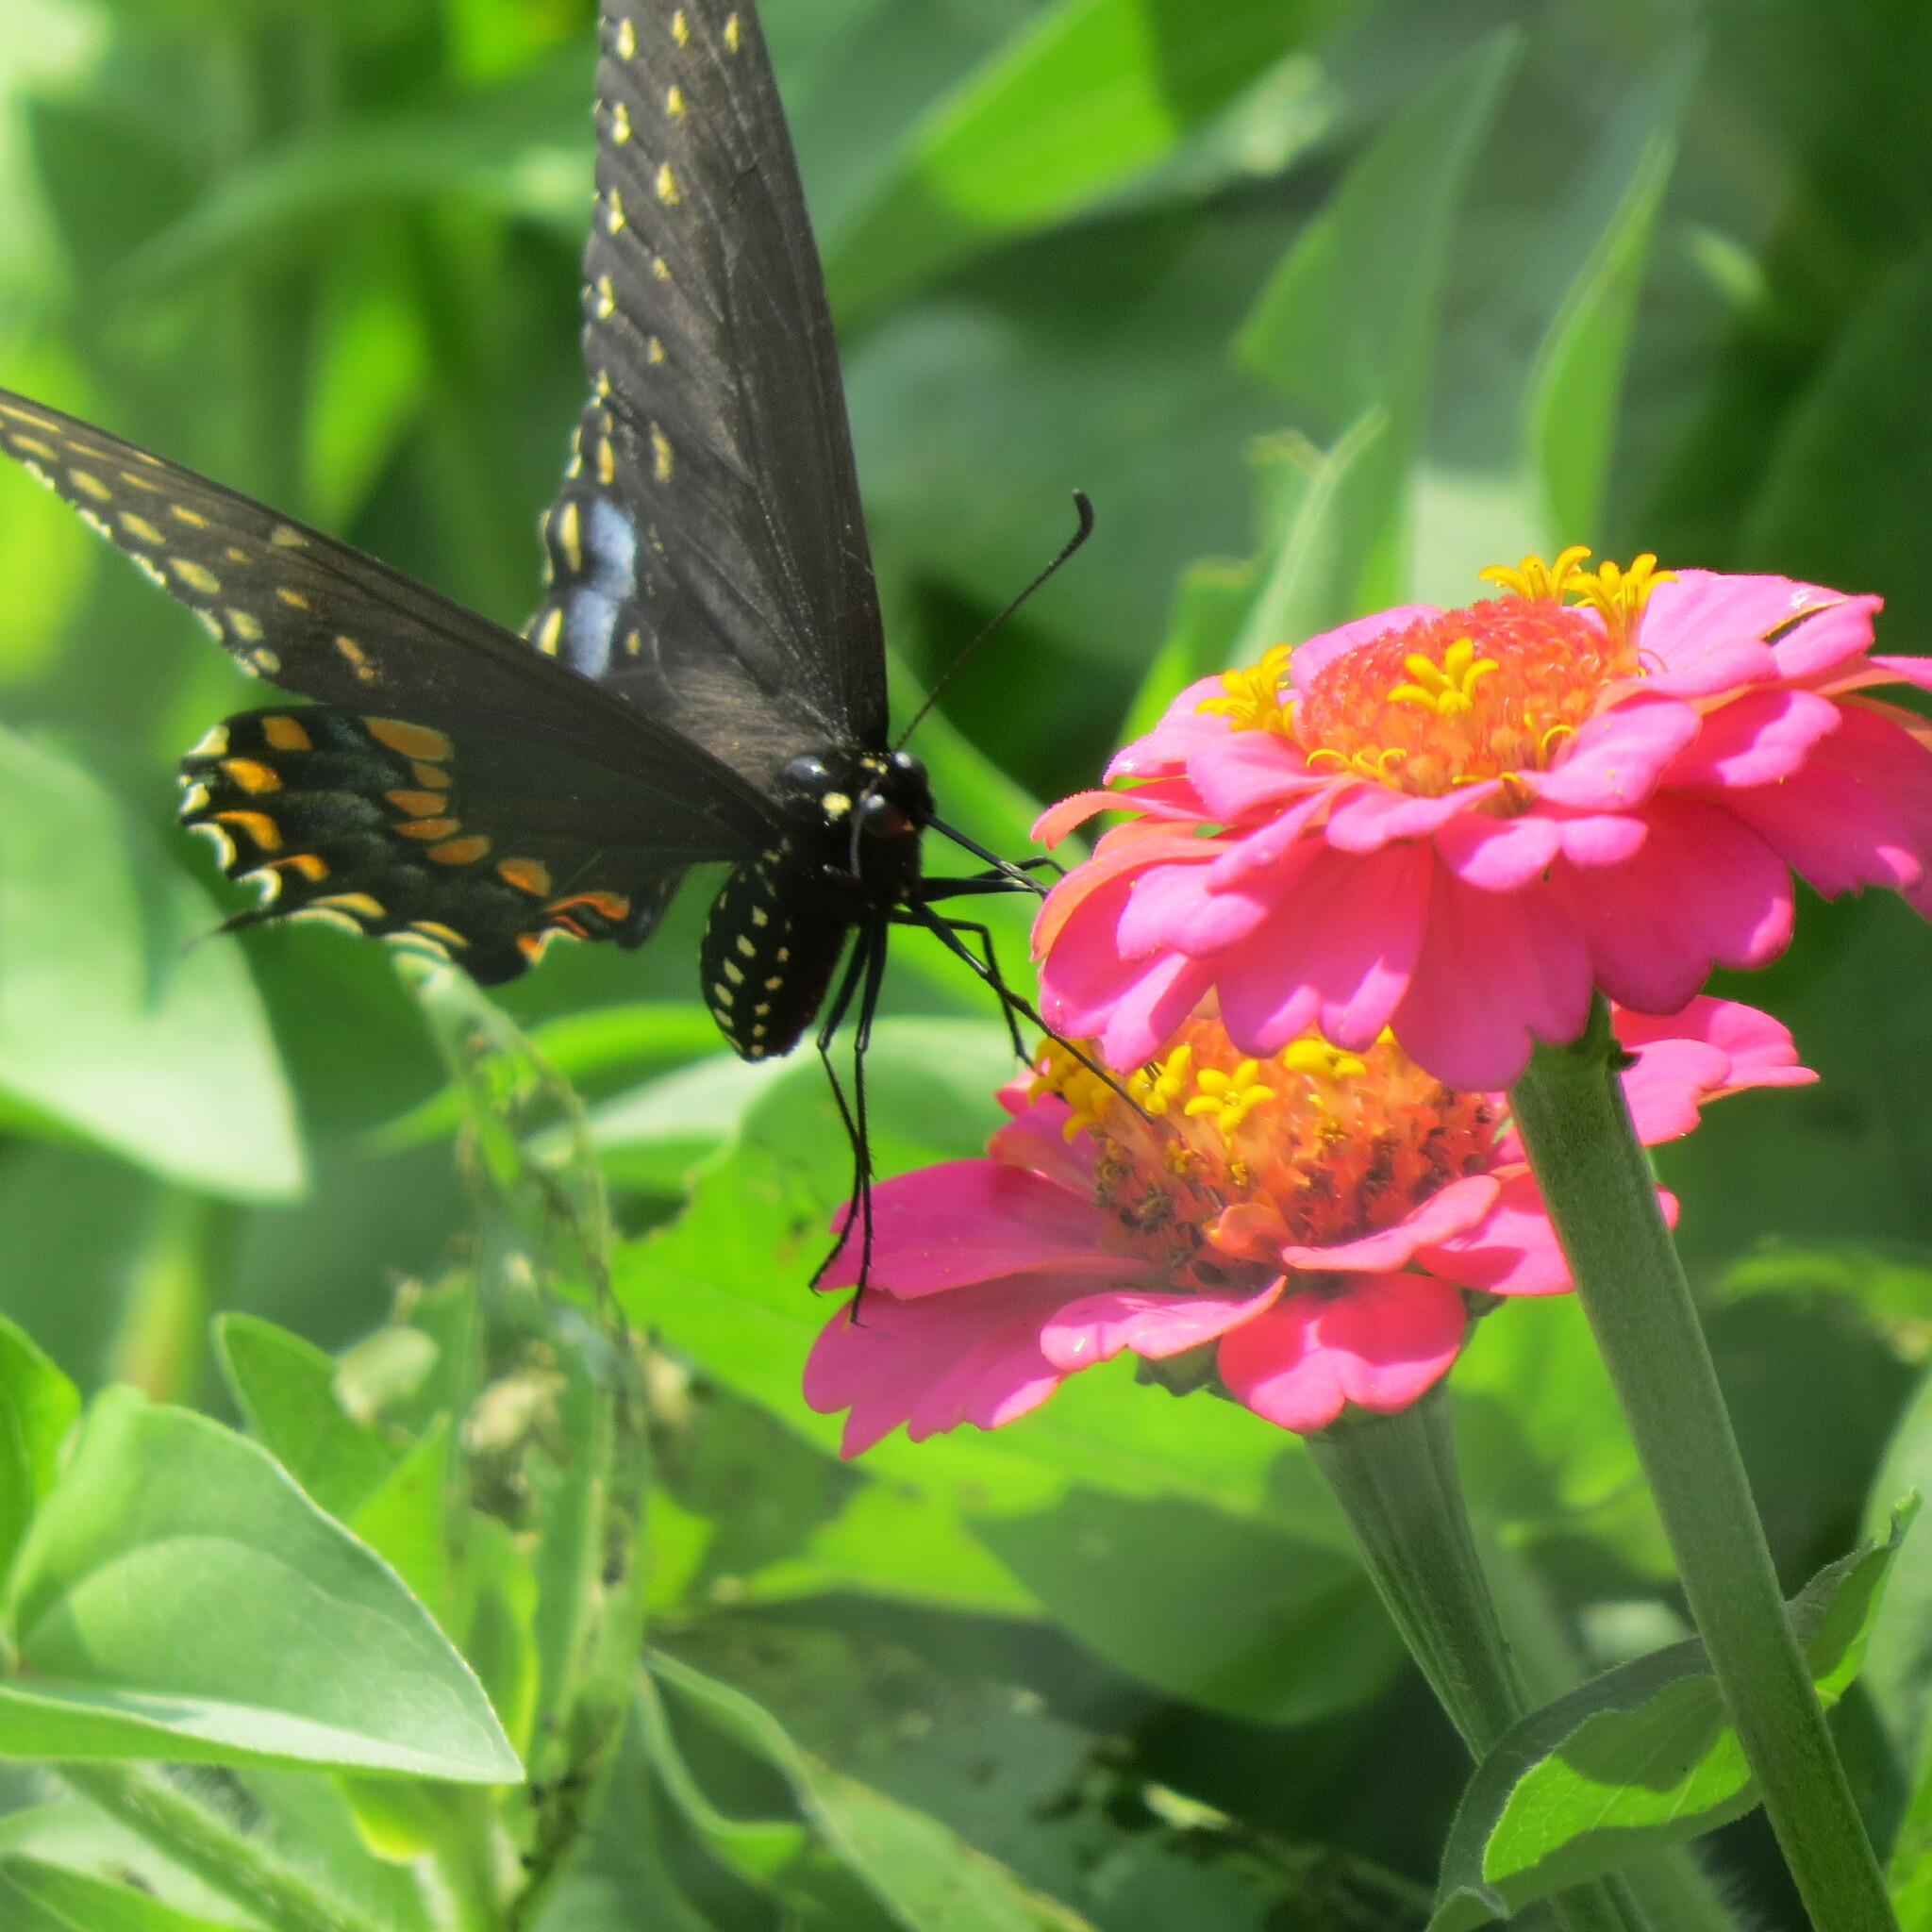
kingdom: Animalia
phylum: Arthropoda
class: Insecta
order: Lepidoptera
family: Papilionidae
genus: Papilio
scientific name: Papilio polyxenes
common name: Black swallowtail
